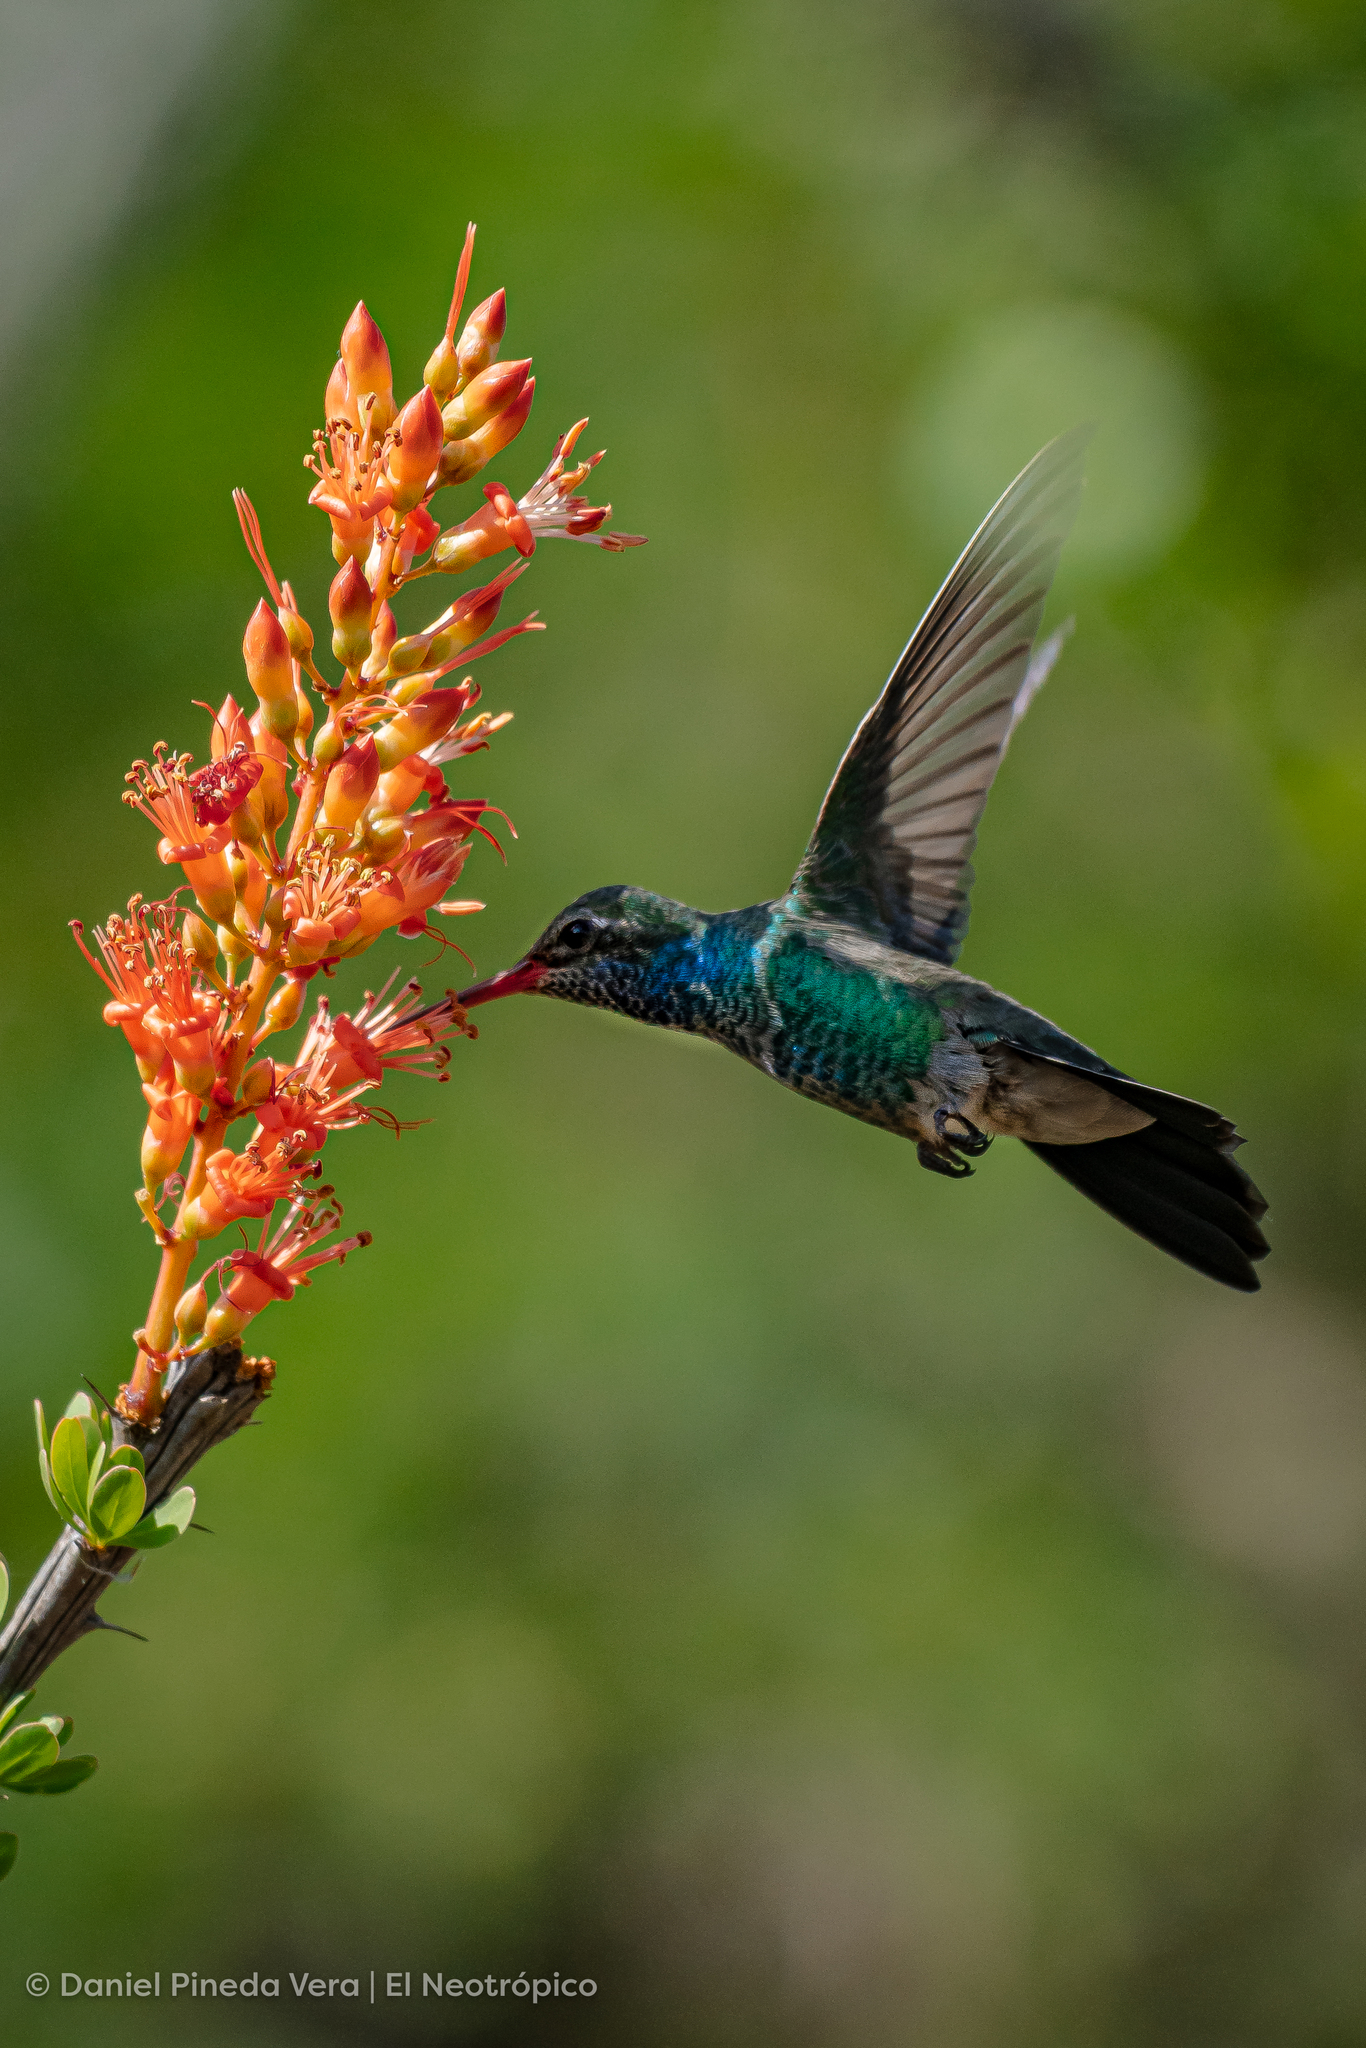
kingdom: Animalia
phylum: Chordata
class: Aves
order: Apodiformes
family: Trochilidae
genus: Cynanthus
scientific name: Cynanthus latirostris
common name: Broad-billed hummingbird
